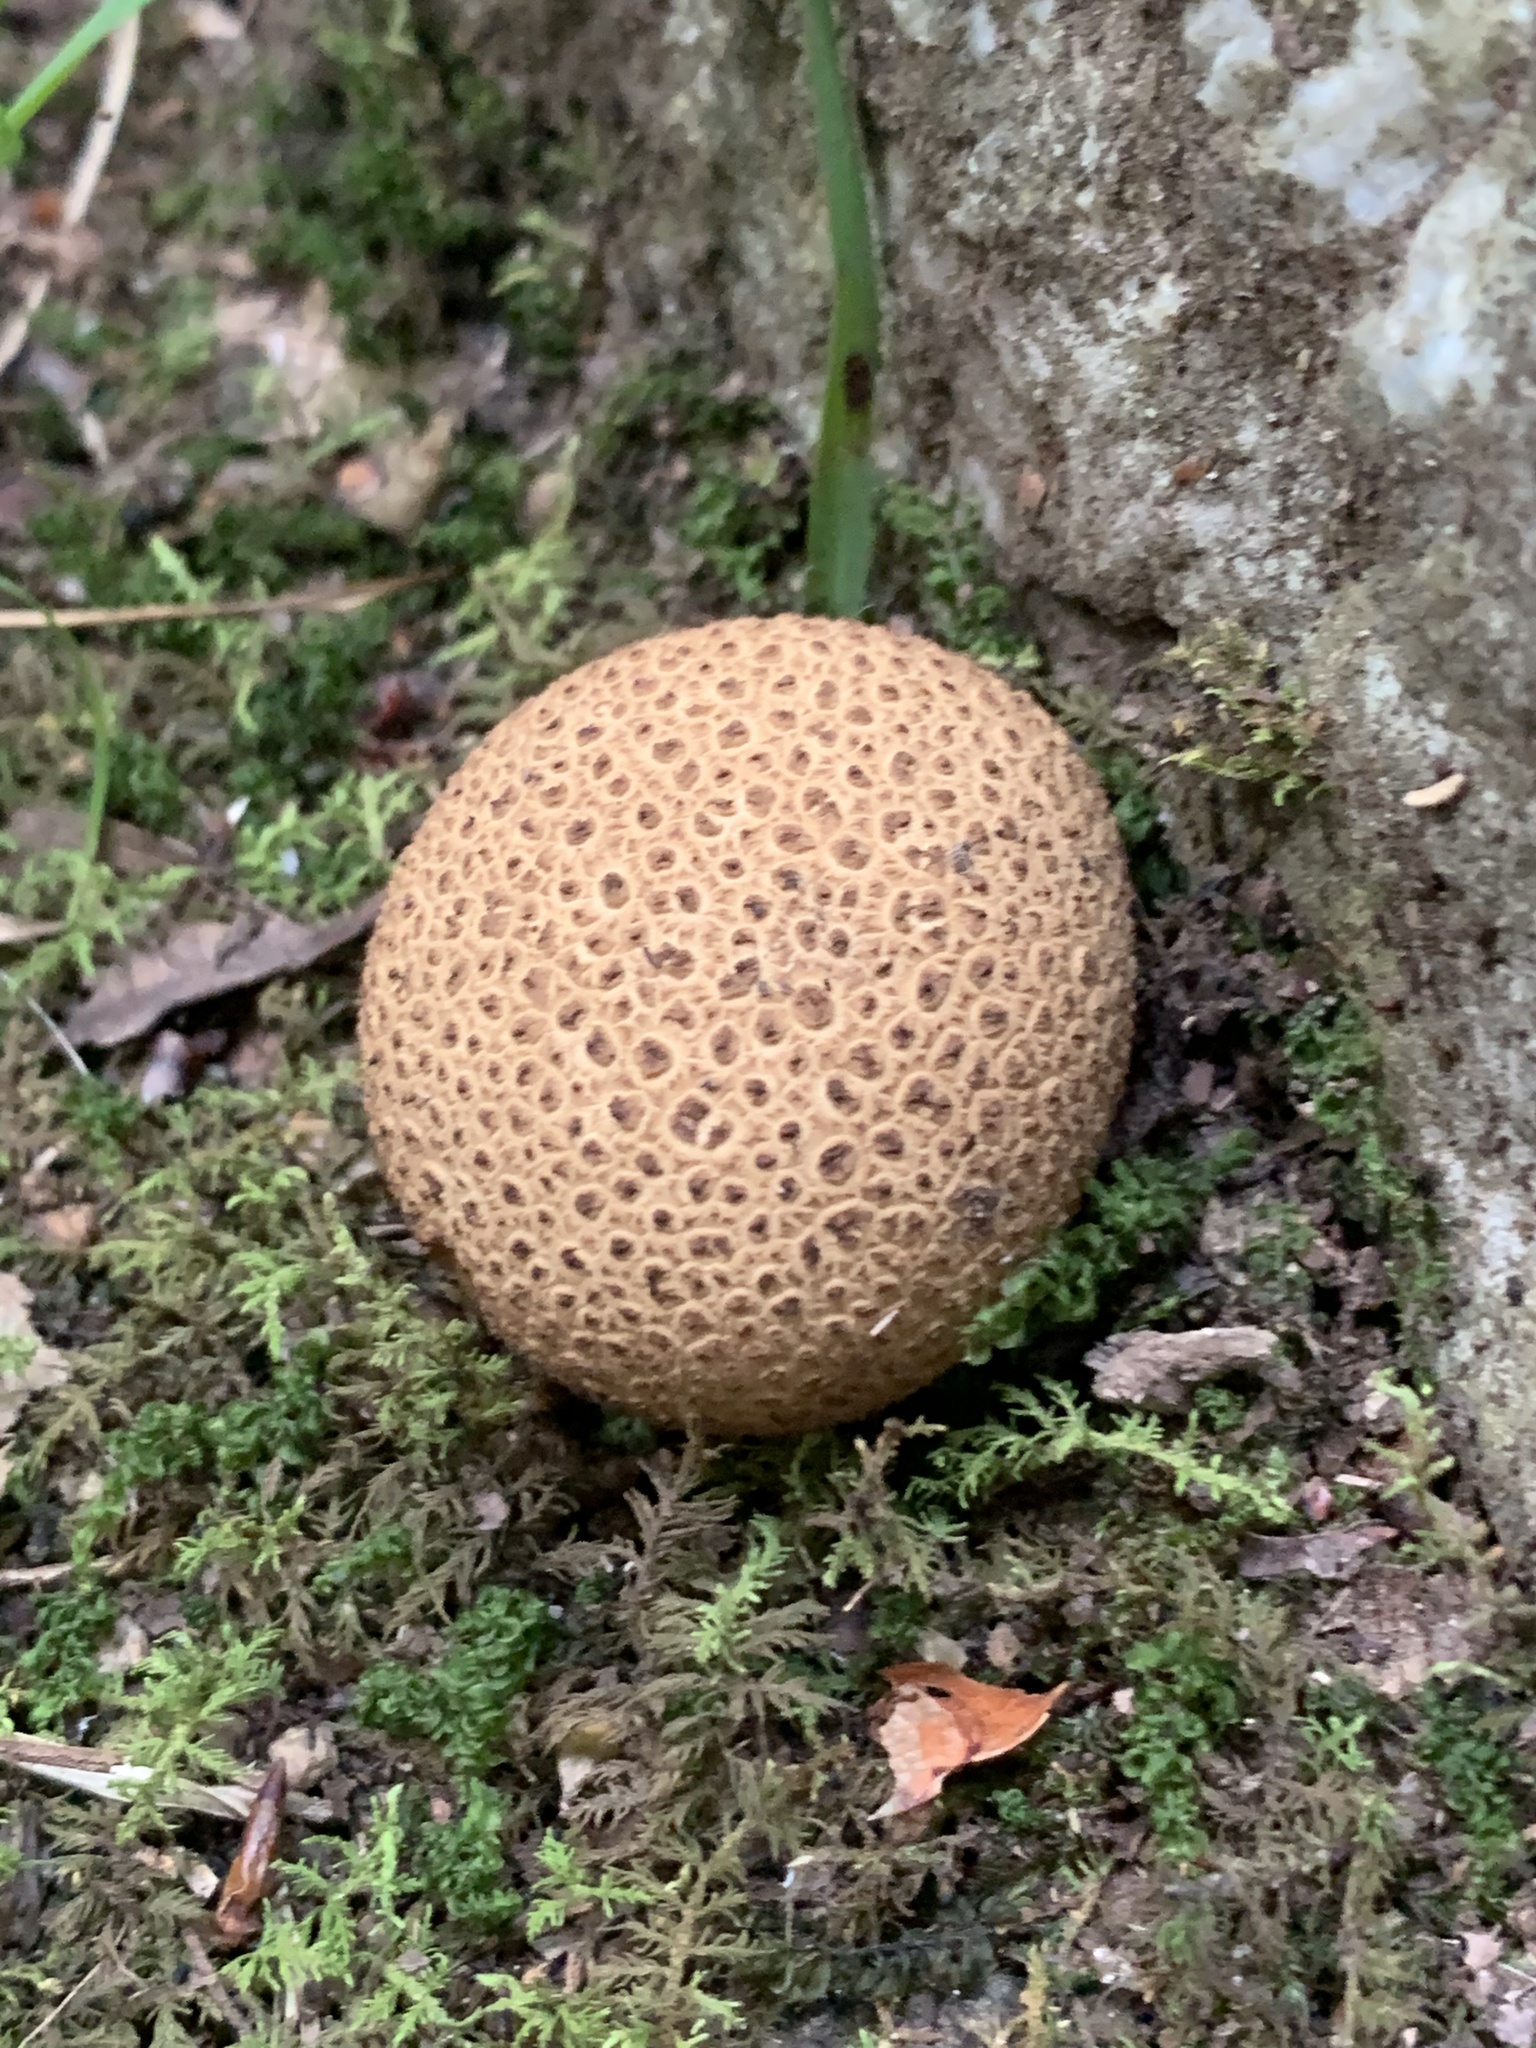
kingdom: Fungi
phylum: Basidiomycota
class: Agaricomycetes
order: Boletales
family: Sclerodermataceae
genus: Scleroderma
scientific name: Scleroderma citrinum
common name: Common earthball
